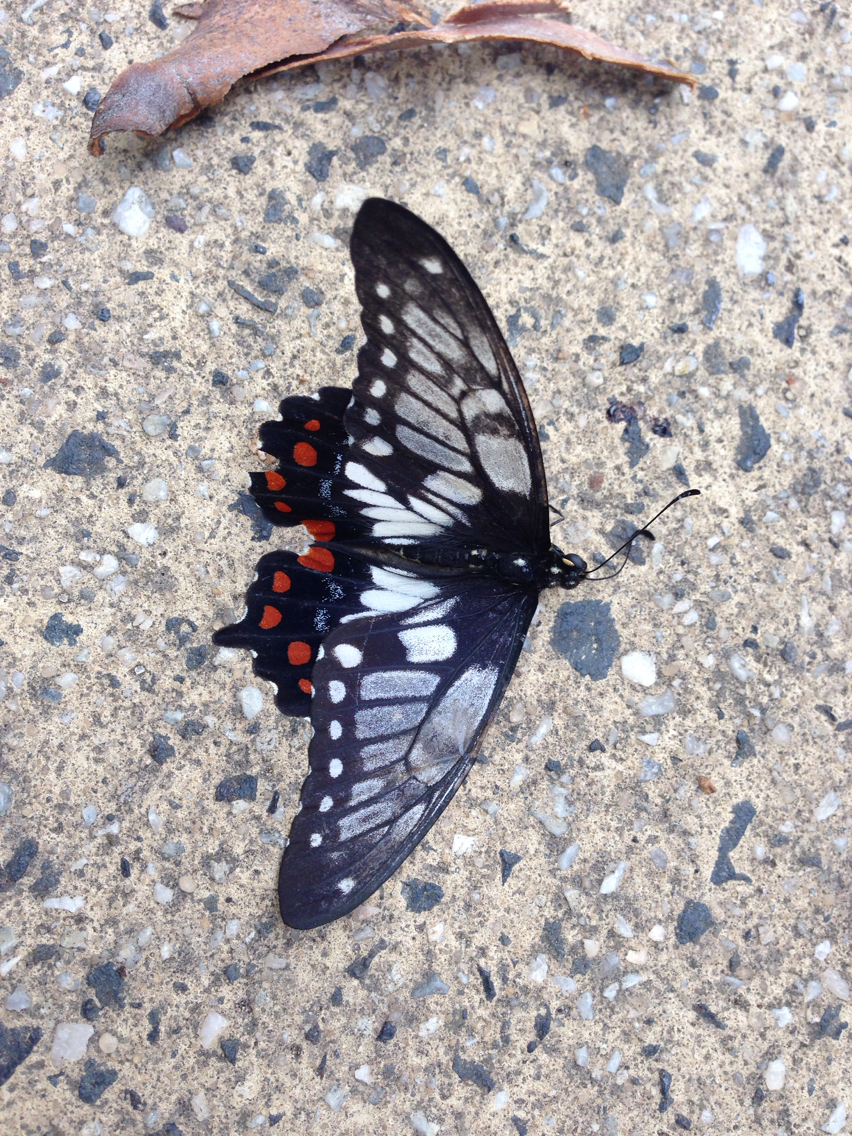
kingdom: Animalia
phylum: Arthropoda
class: Insecta
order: Lepidoptera
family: Papilionidae
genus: Papilio
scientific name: Papilio anactus
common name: Dingy swallowtail
